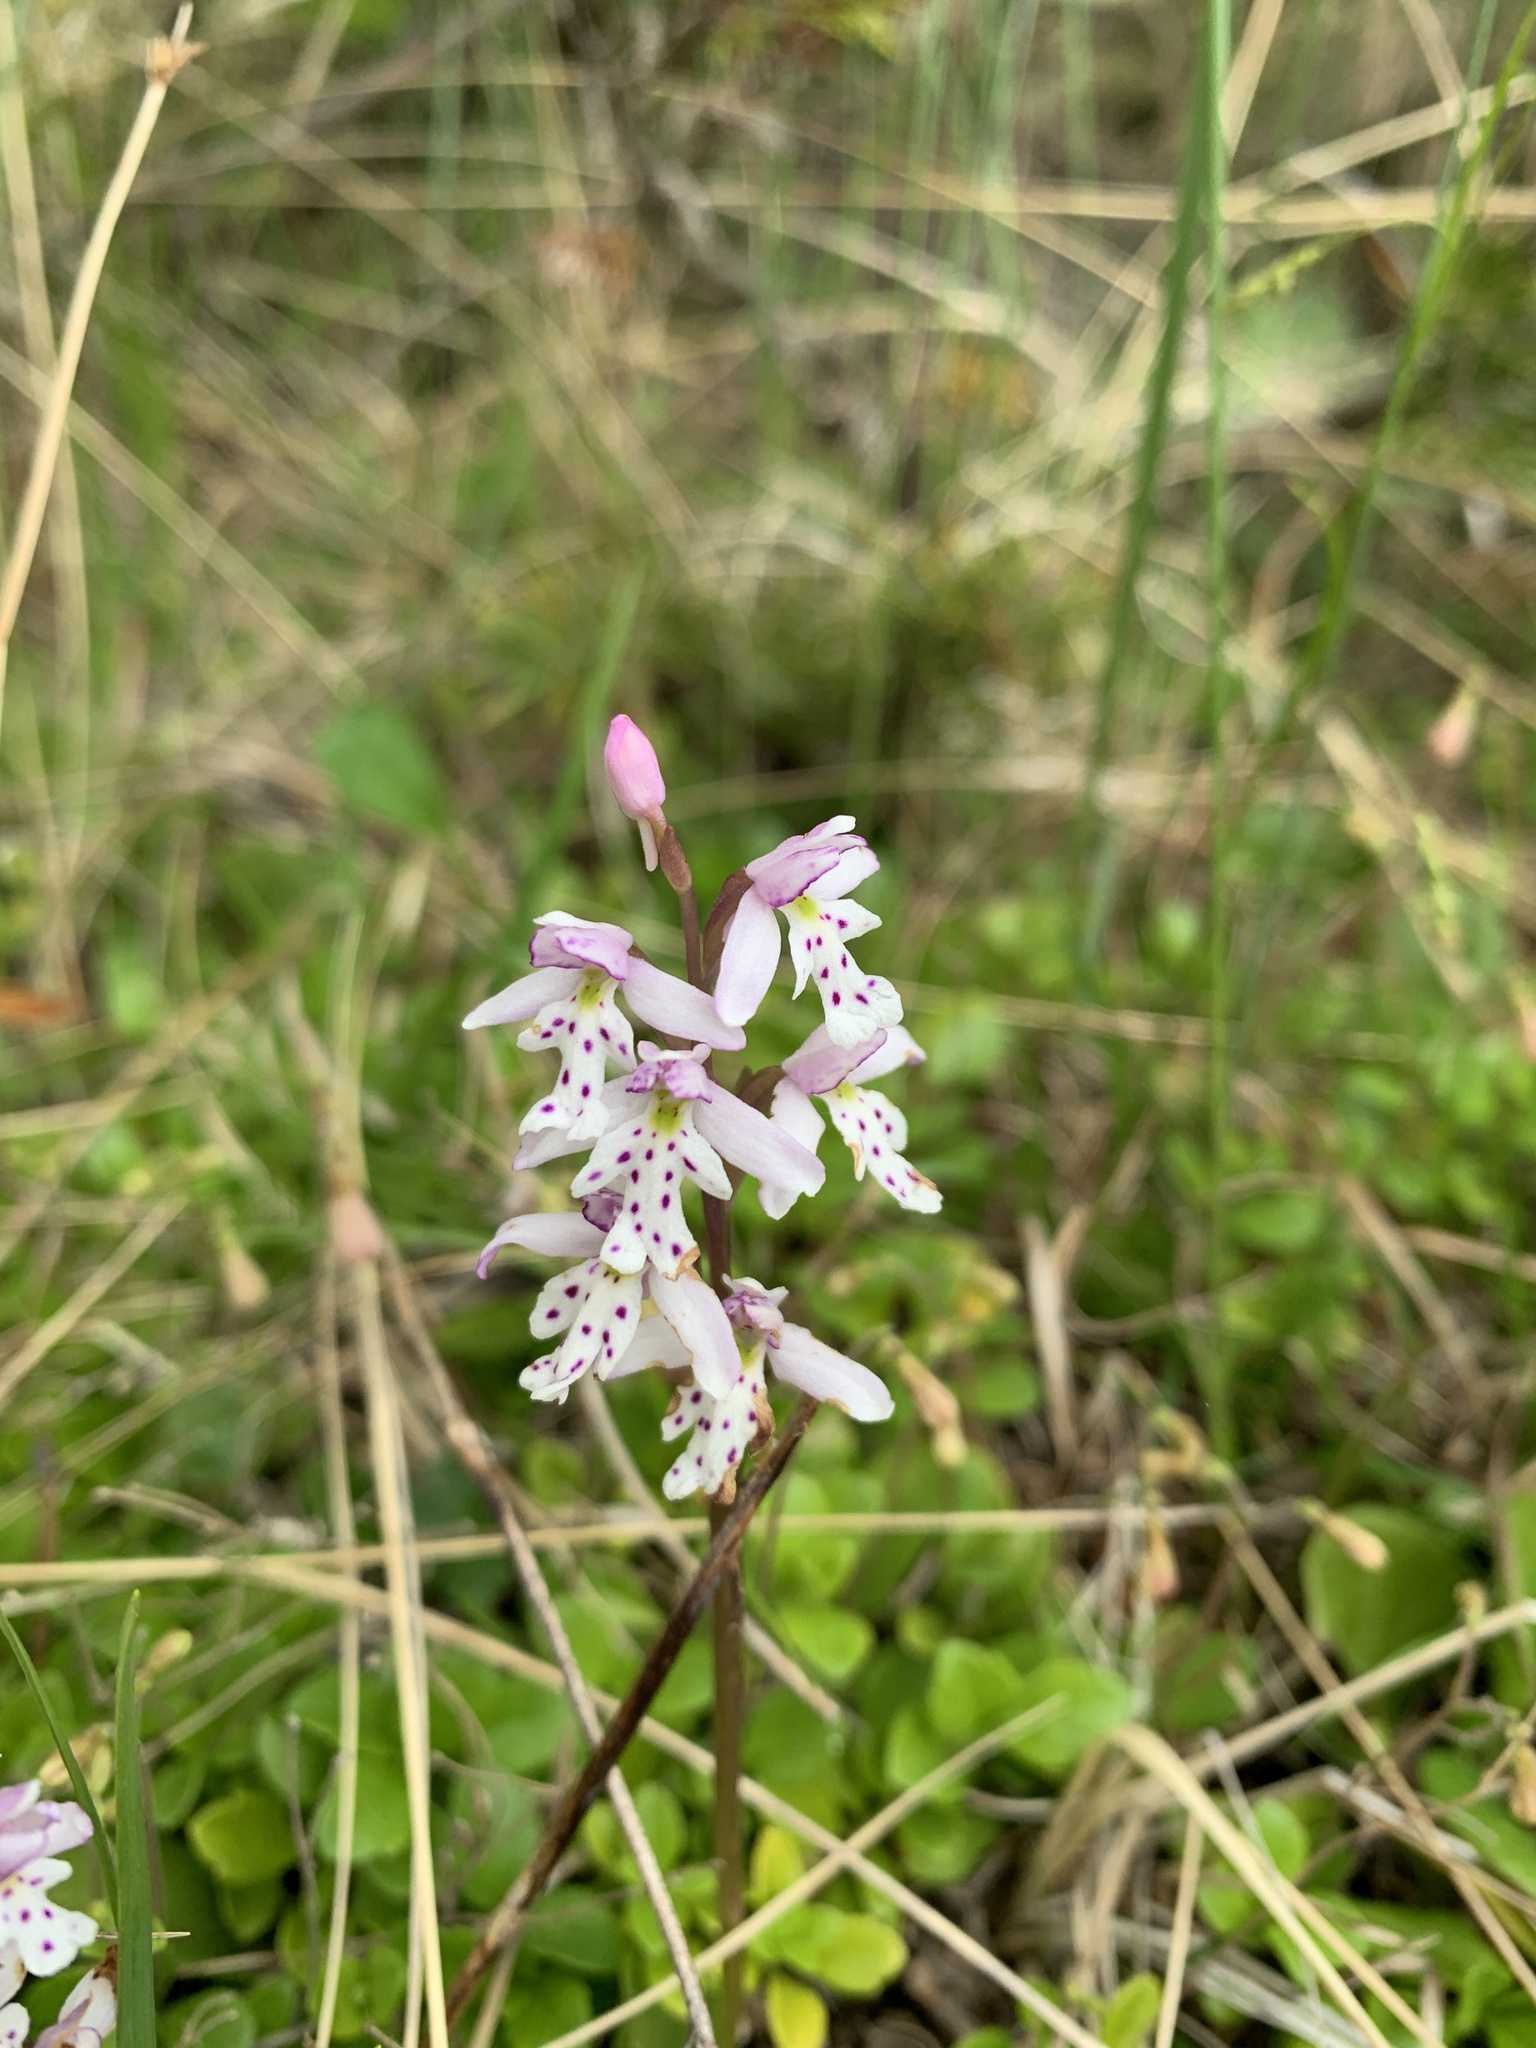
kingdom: Plantae
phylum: Tracheophyta
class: Liliopsida
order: Asparagales
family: Orchidaceae
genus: Galearis
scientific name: Galearis rotundifolia
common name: One-leaved orchis
